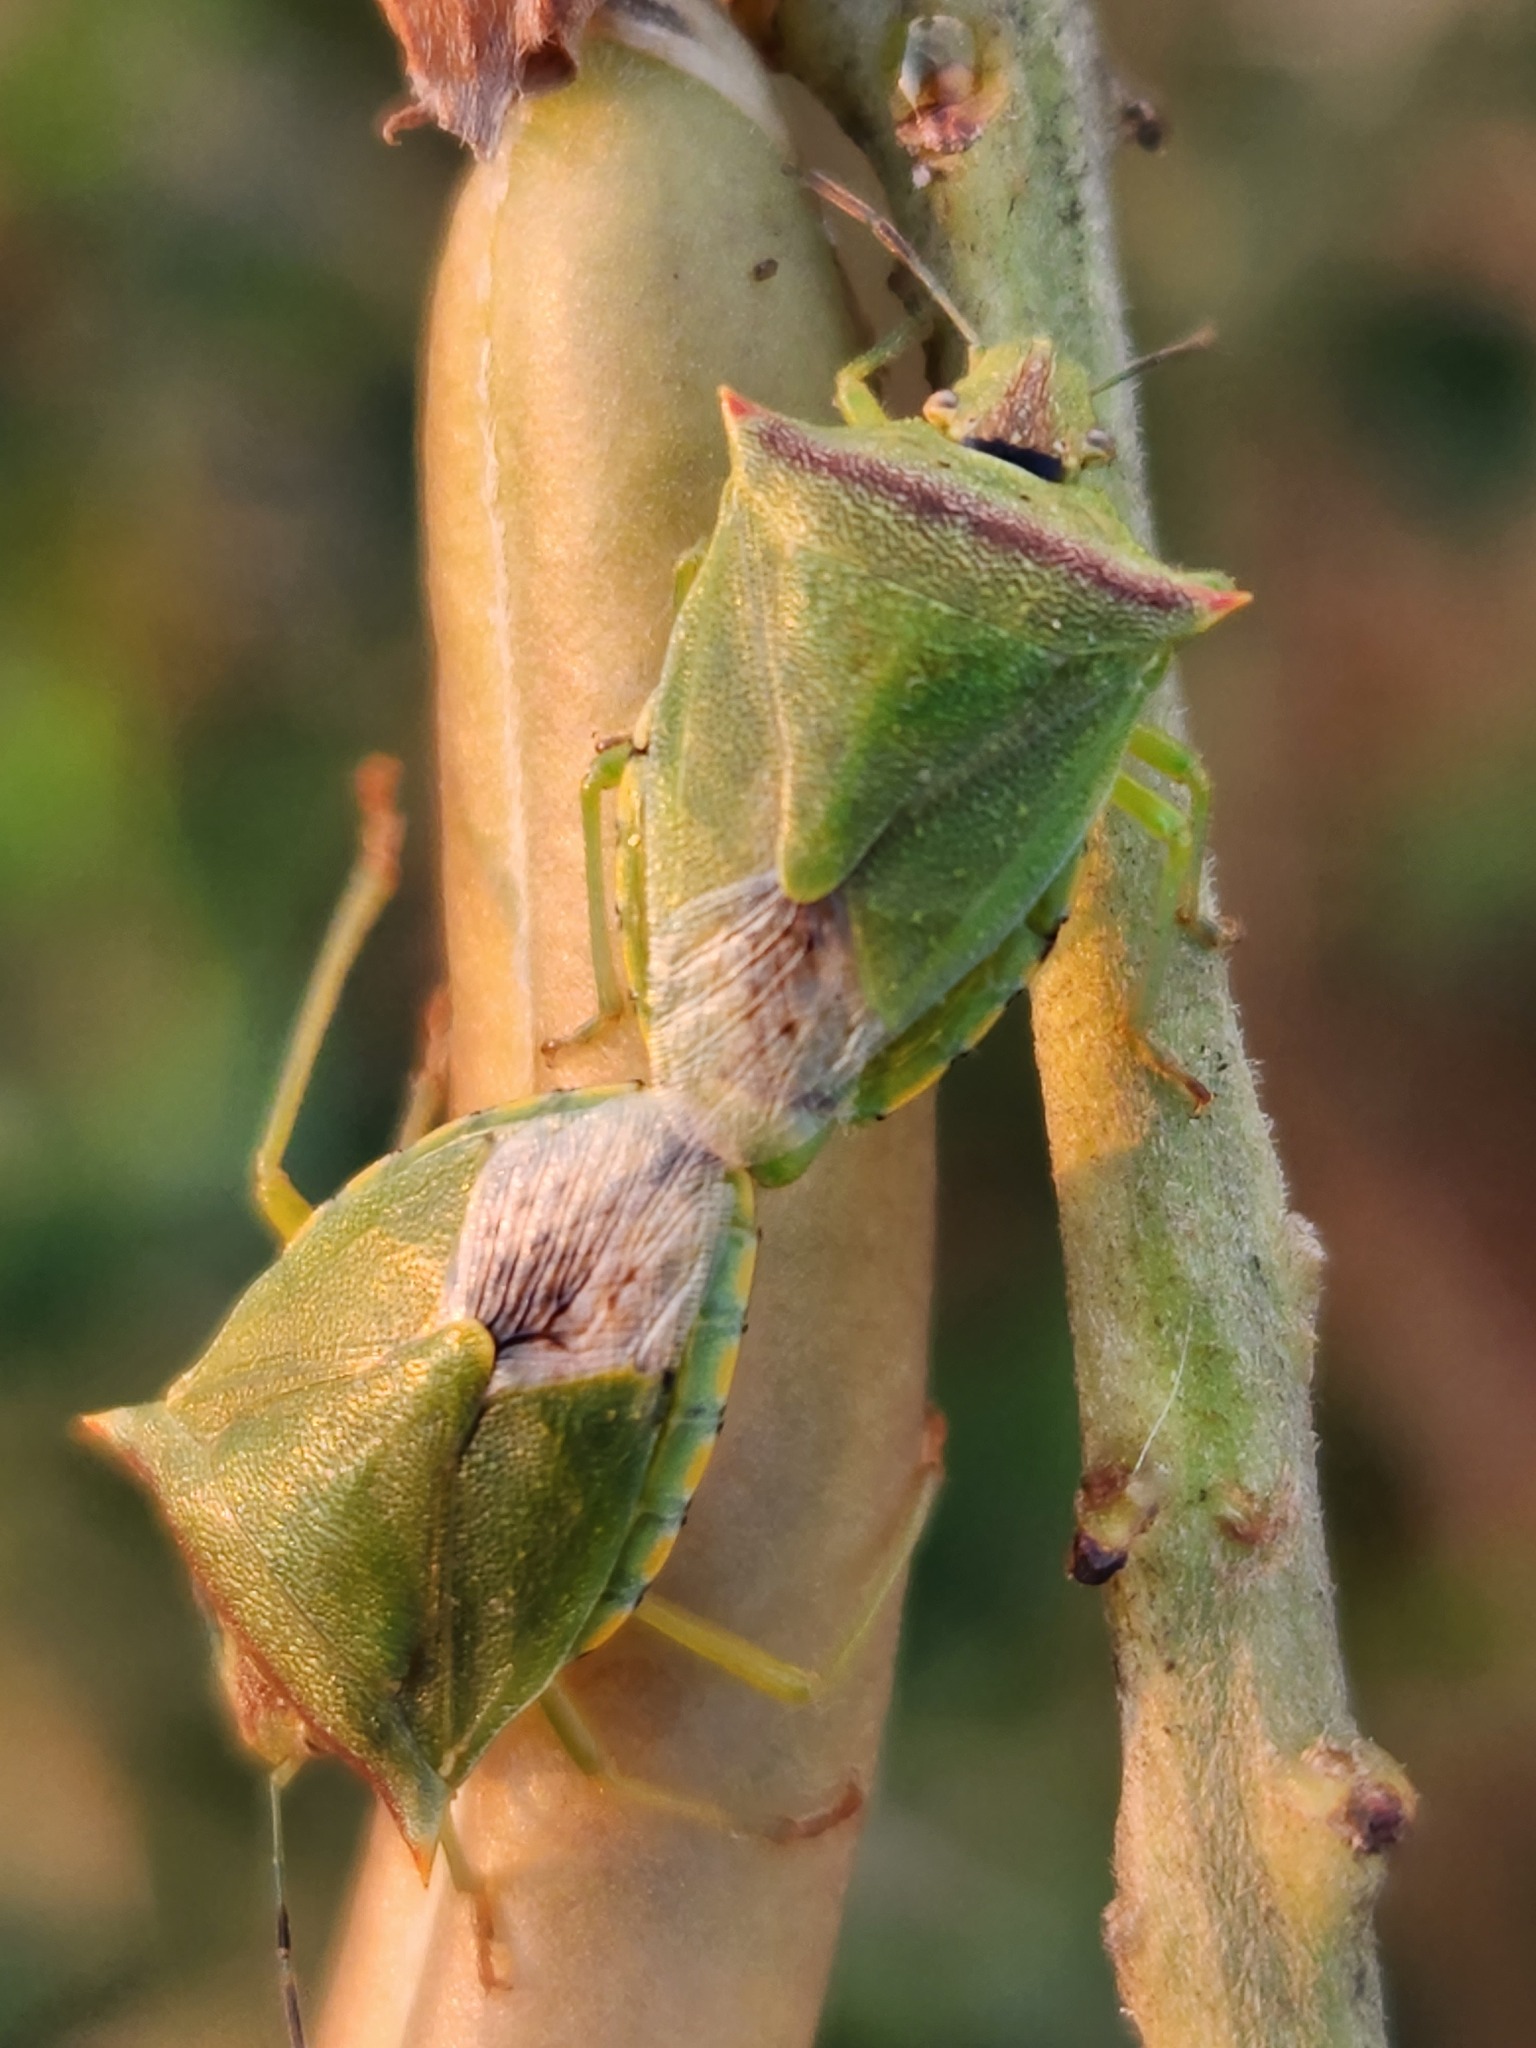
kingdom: Animalia
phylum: Arthropoda
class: Insecta
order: Hemiptera
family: Pentatomidae
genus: Thyanta
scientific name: Thyanta perditor
